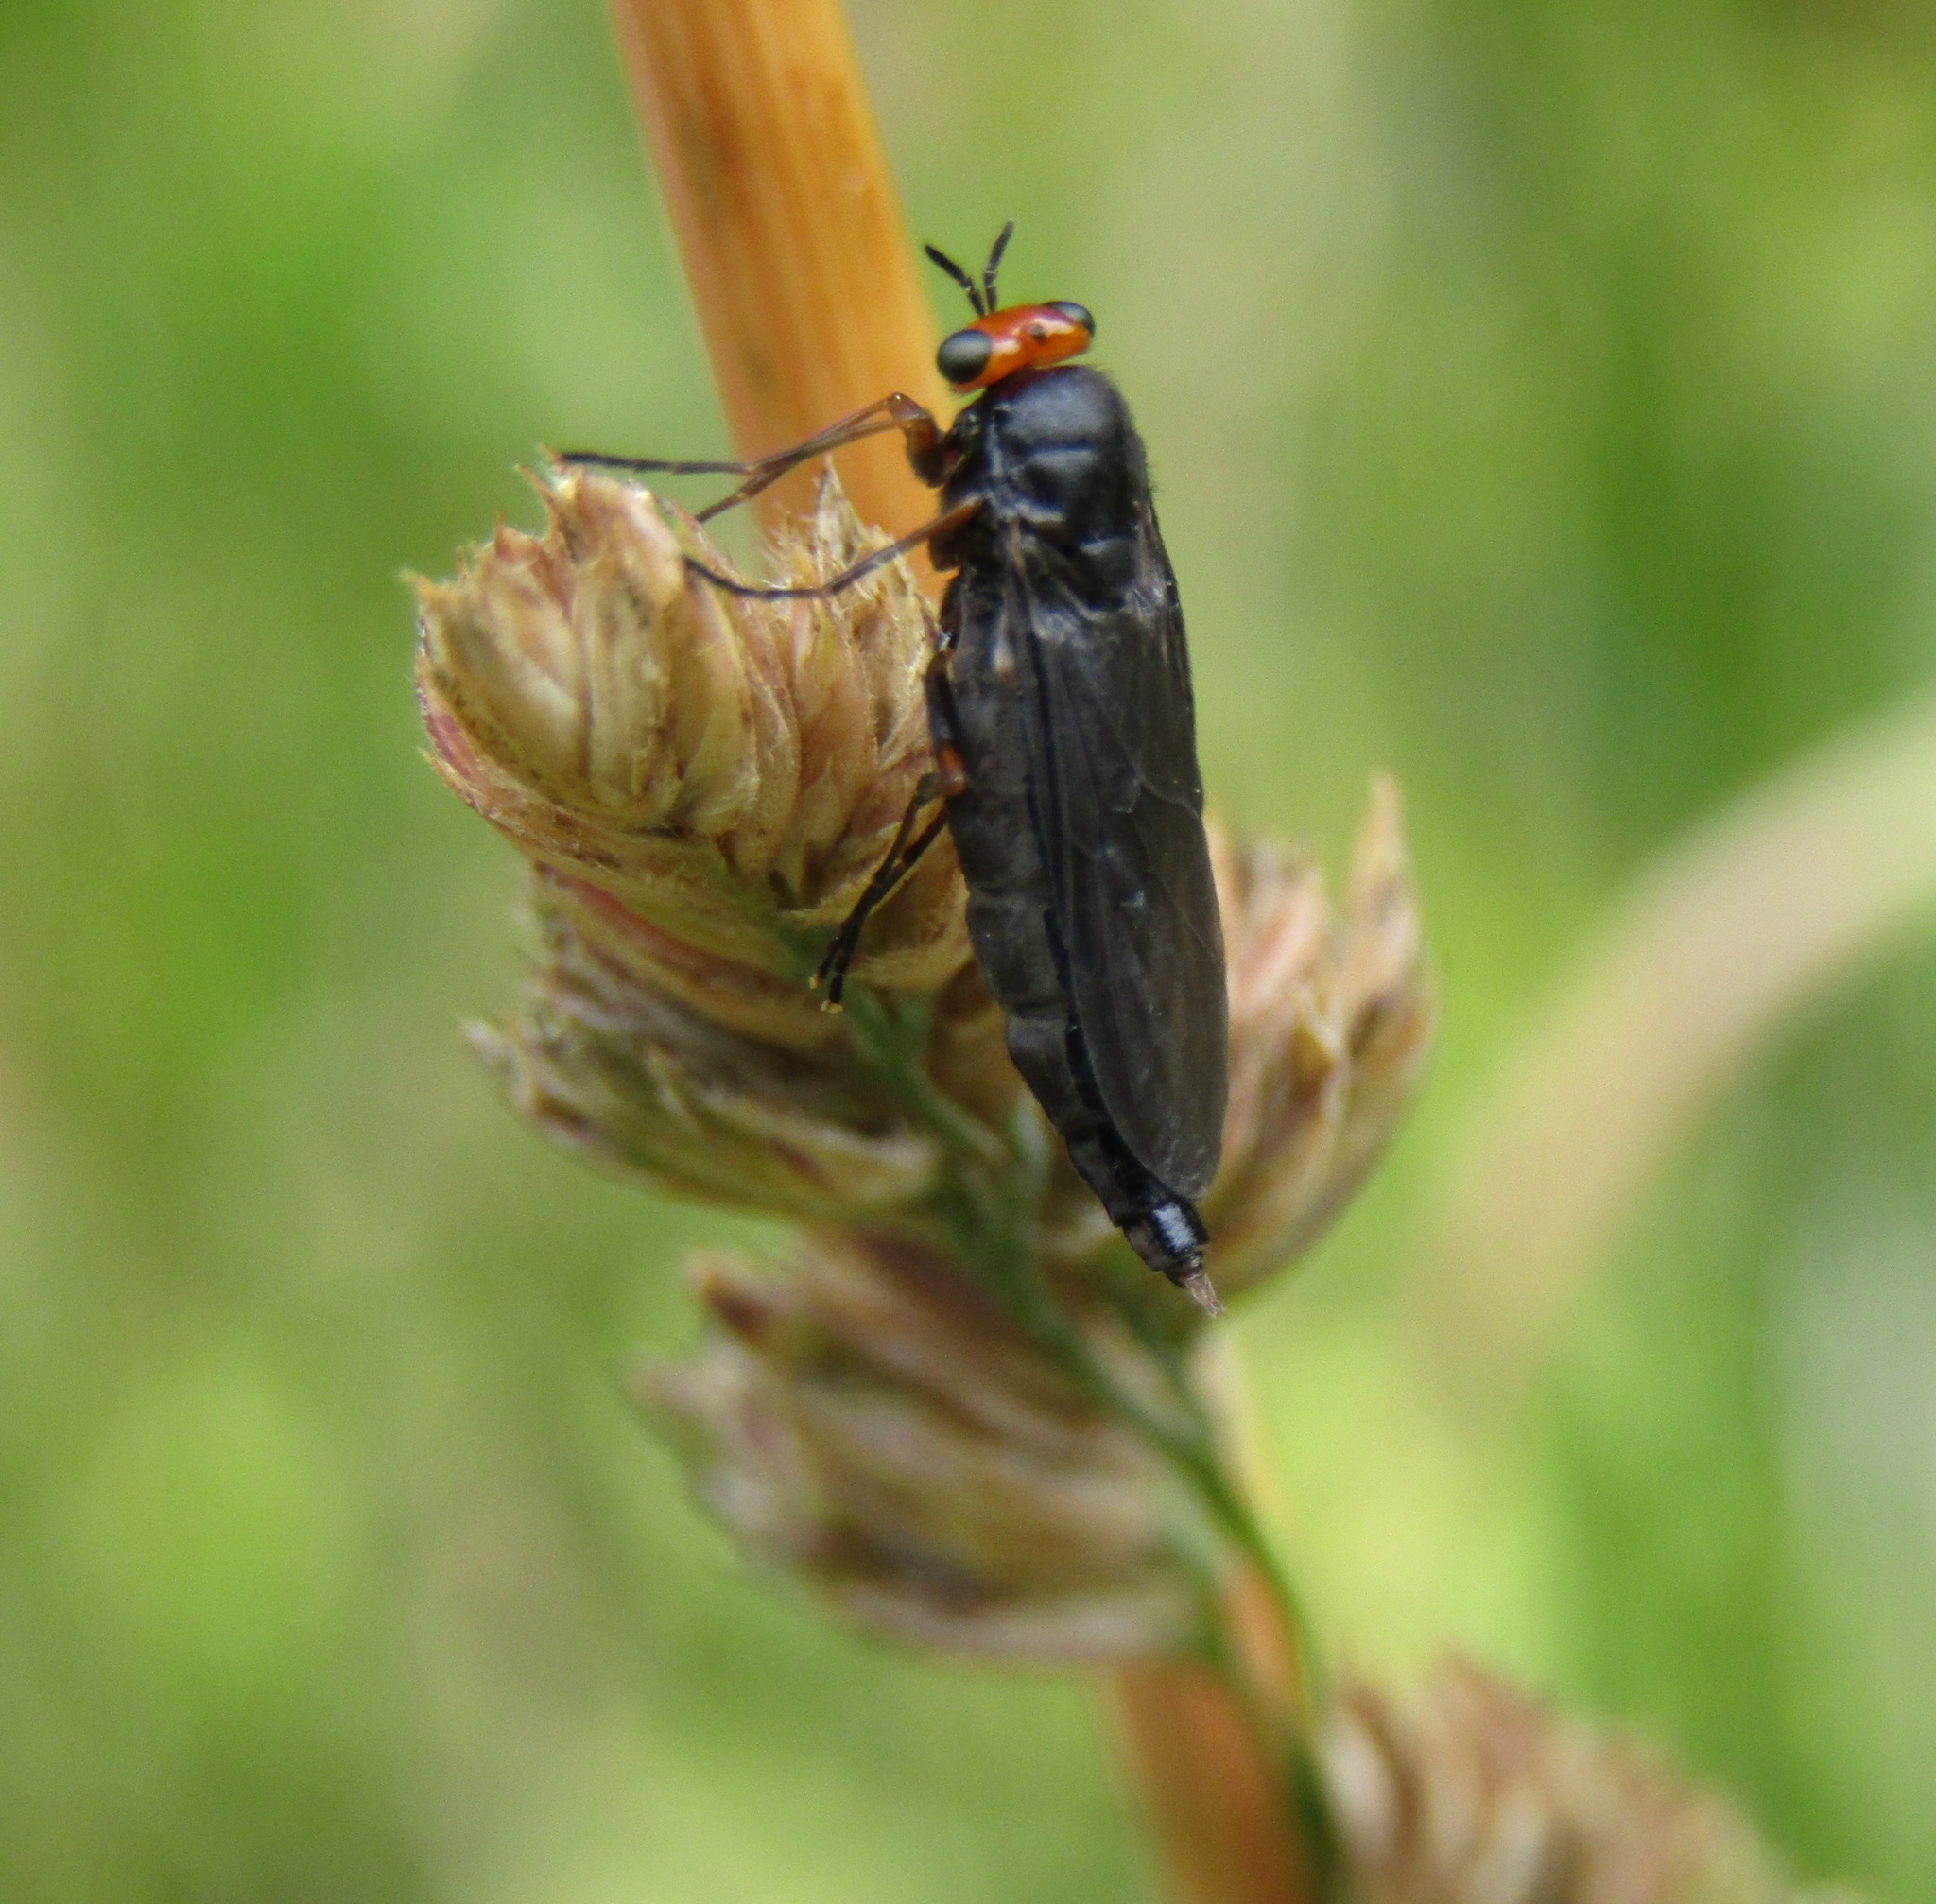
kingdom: Animalia
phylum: Arthropoda
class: Insecta
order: Diptera
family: Stratiomyidae
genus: Inopus
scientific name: Inopus rubriceps
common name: Soldier fly
